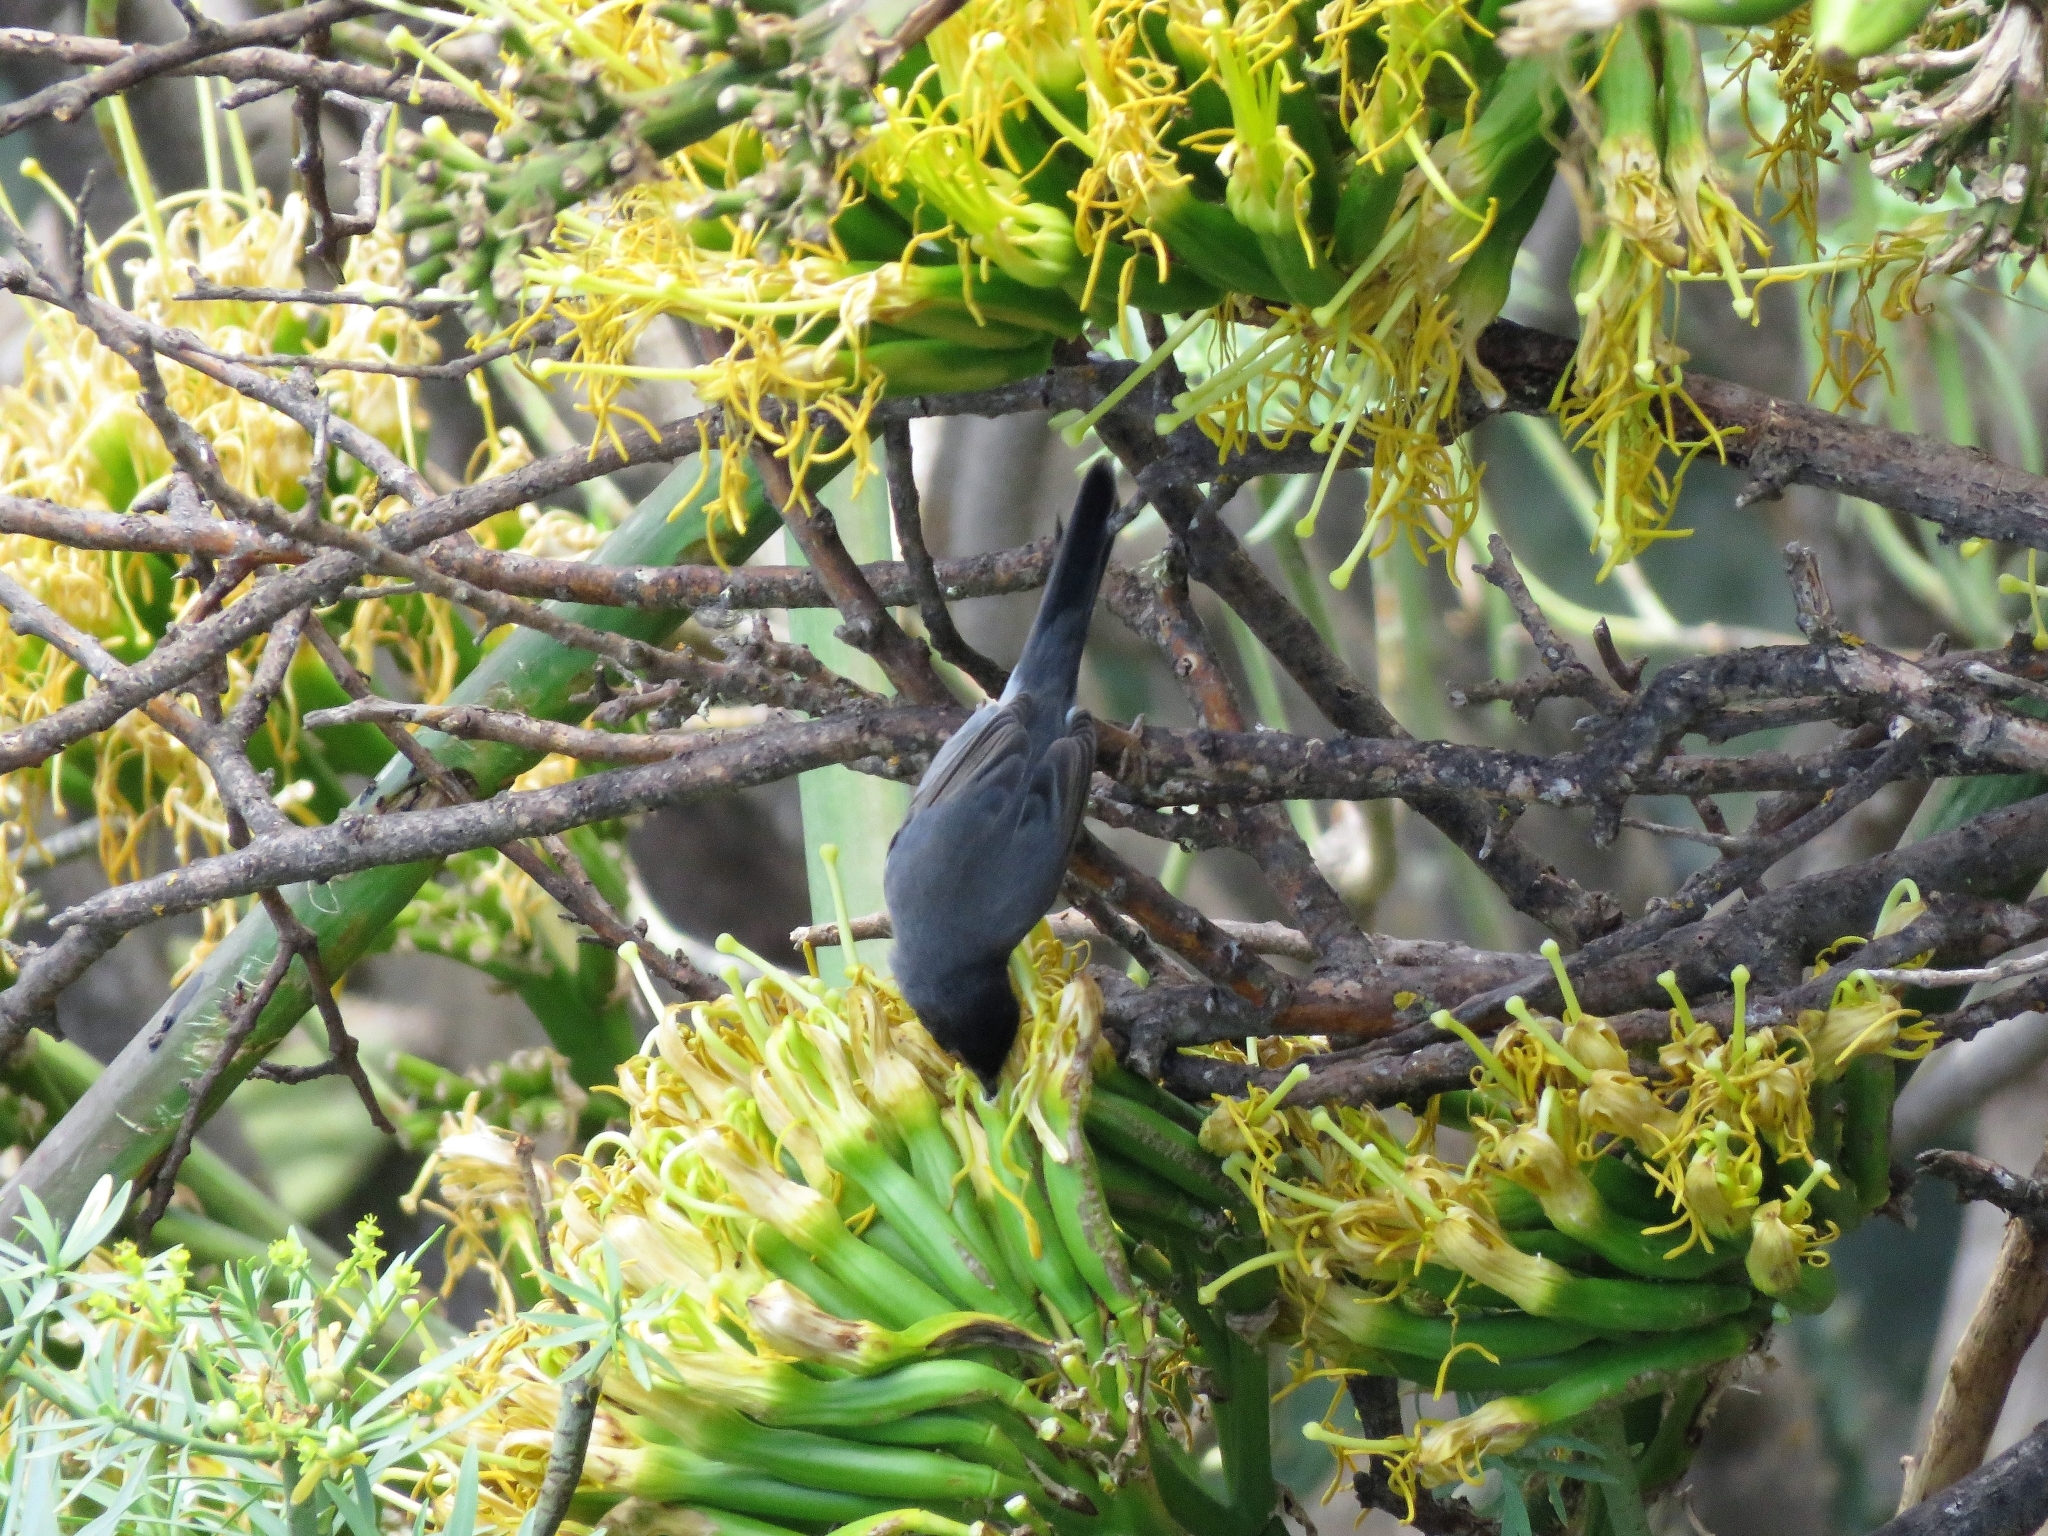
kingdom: Animalia
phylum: Chordata
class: Aves
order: Passeriformes
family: Sylviidae
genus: Curruca
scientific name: Curruca melanocephala
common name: Sardinian warbler
